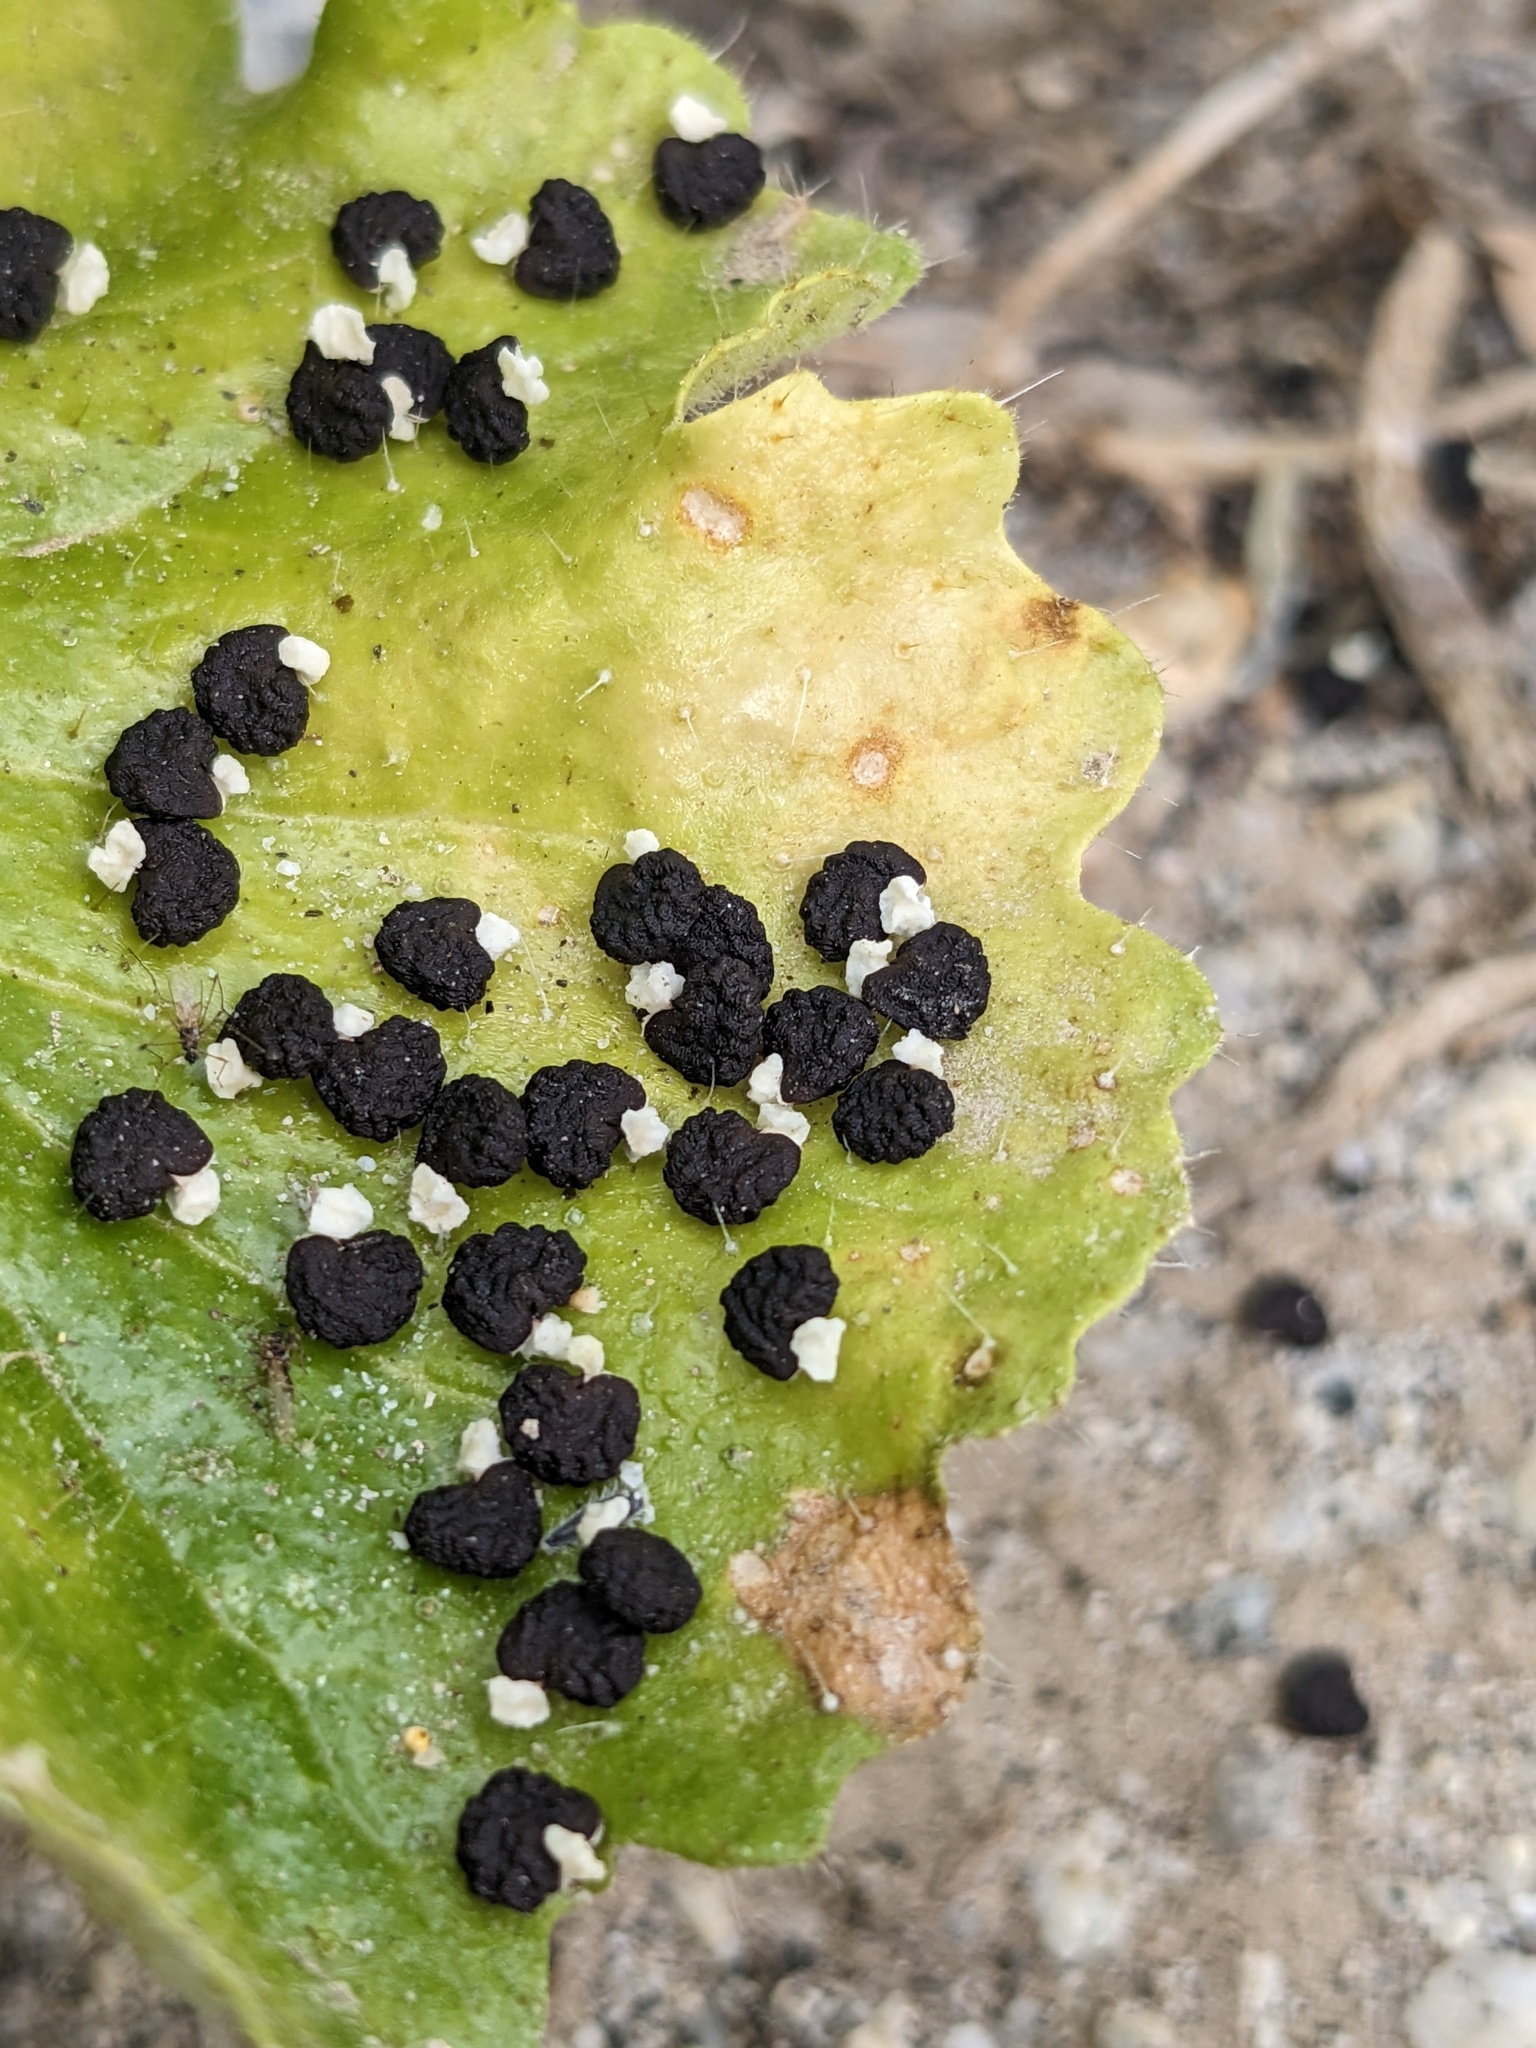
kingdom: Plantae
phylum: Tracheophyta
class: Magnoliopsida
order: Cornales
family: Loasaceae
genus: Eucnide
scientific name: Eucnide rupestris
